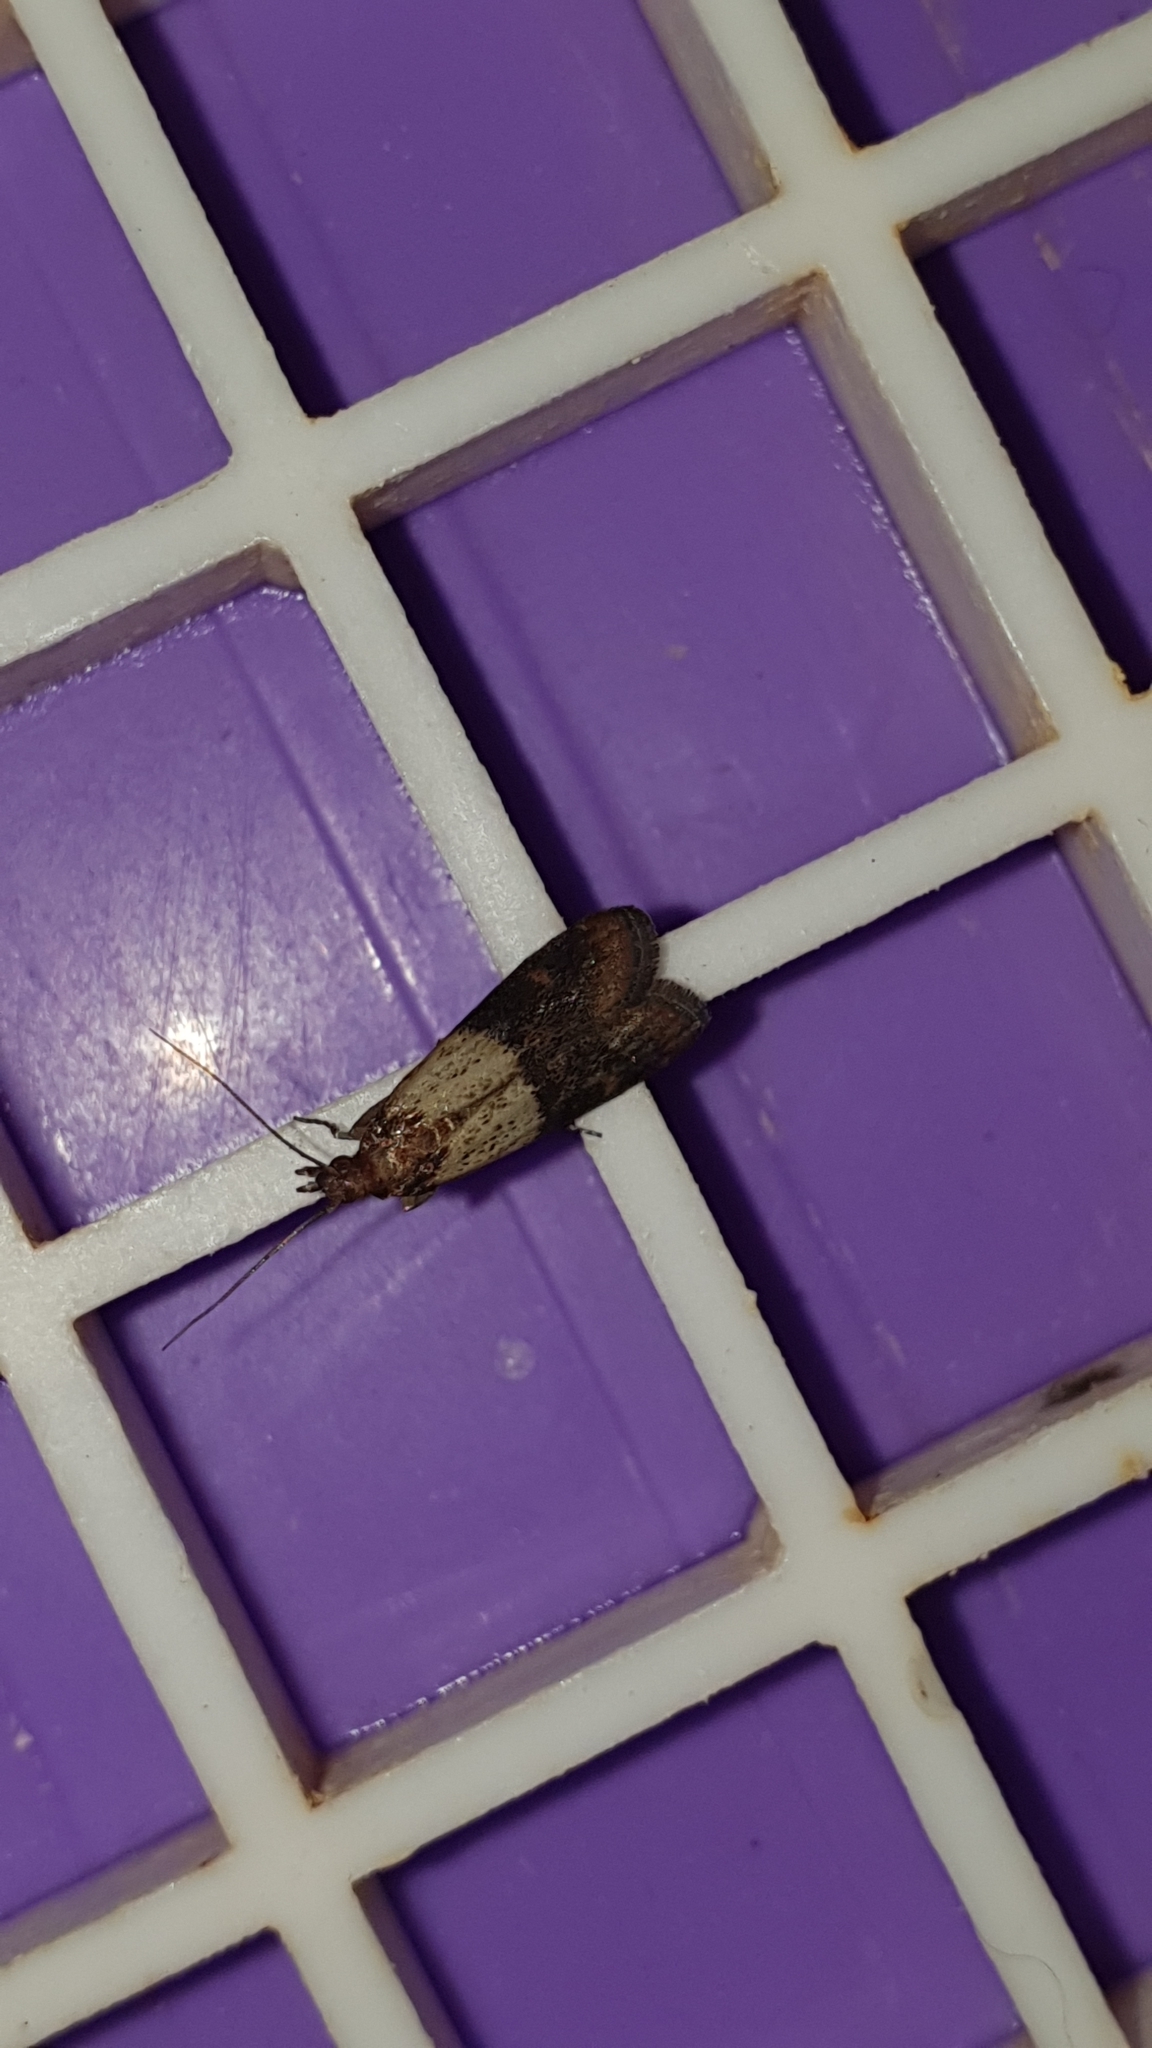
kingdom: Animalia
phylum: Arthropoda
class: Insecta
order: Lepidoptera
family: Pyralidae
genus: Plodia
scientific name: Plodia interpunctella
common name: Indian meal moth
